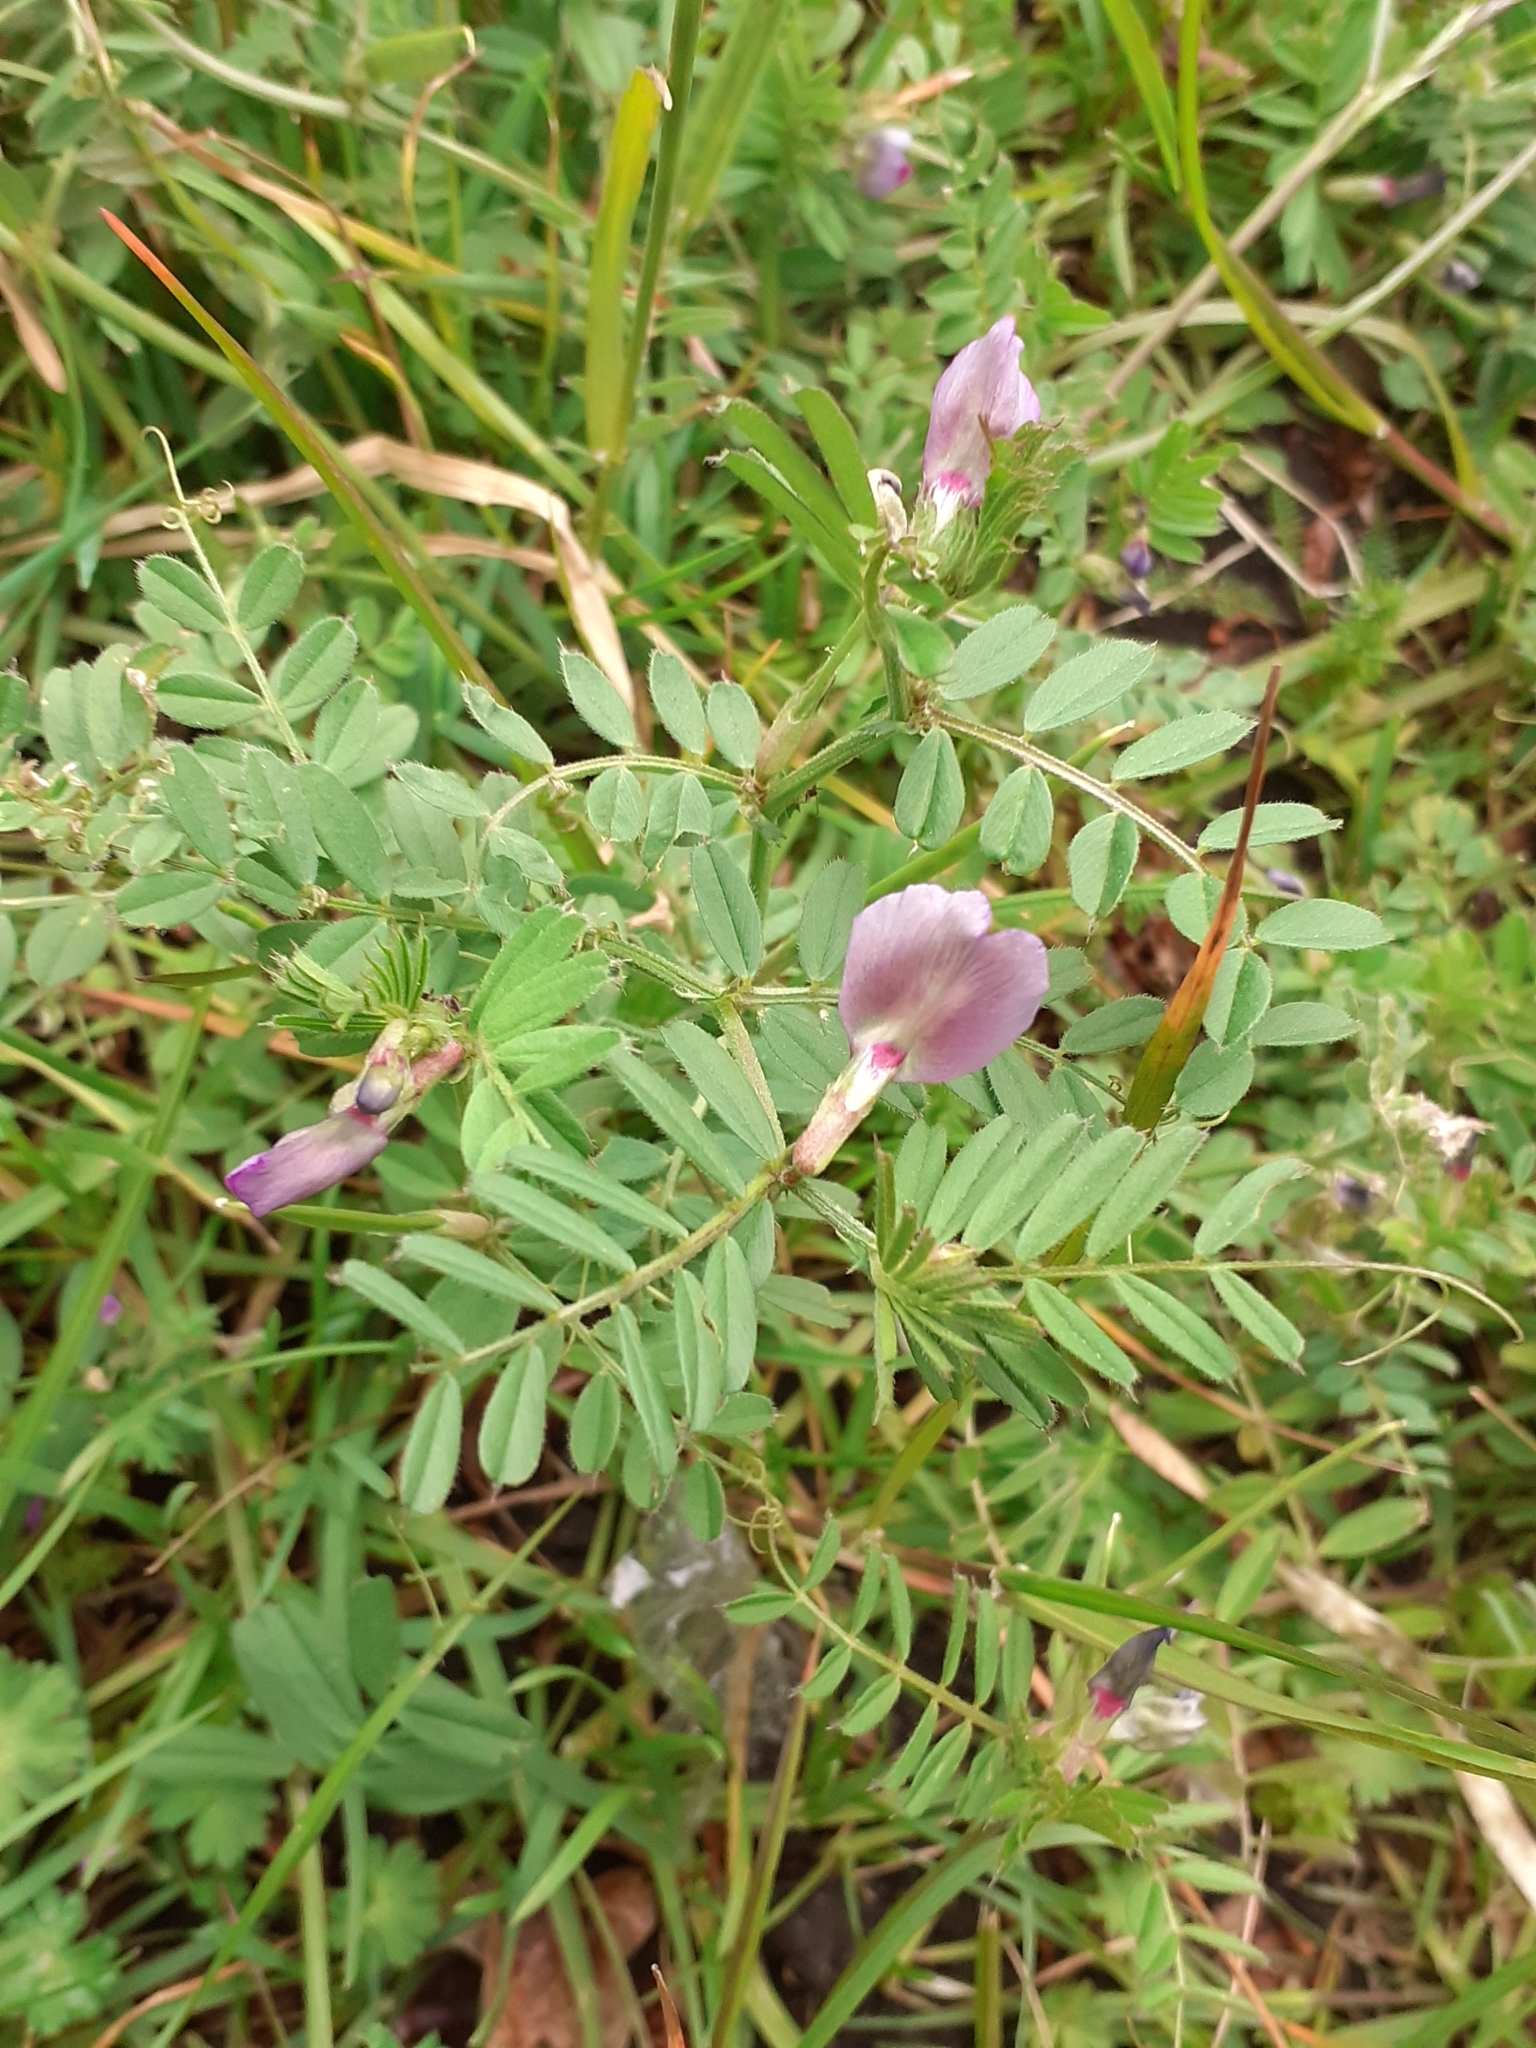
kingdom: Plantae
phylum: Tracheophyta
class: Magnoliopsida
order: Fabales
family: Fabaceae
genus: Vicia
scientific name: Vicia sativa
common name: Garden vetch
